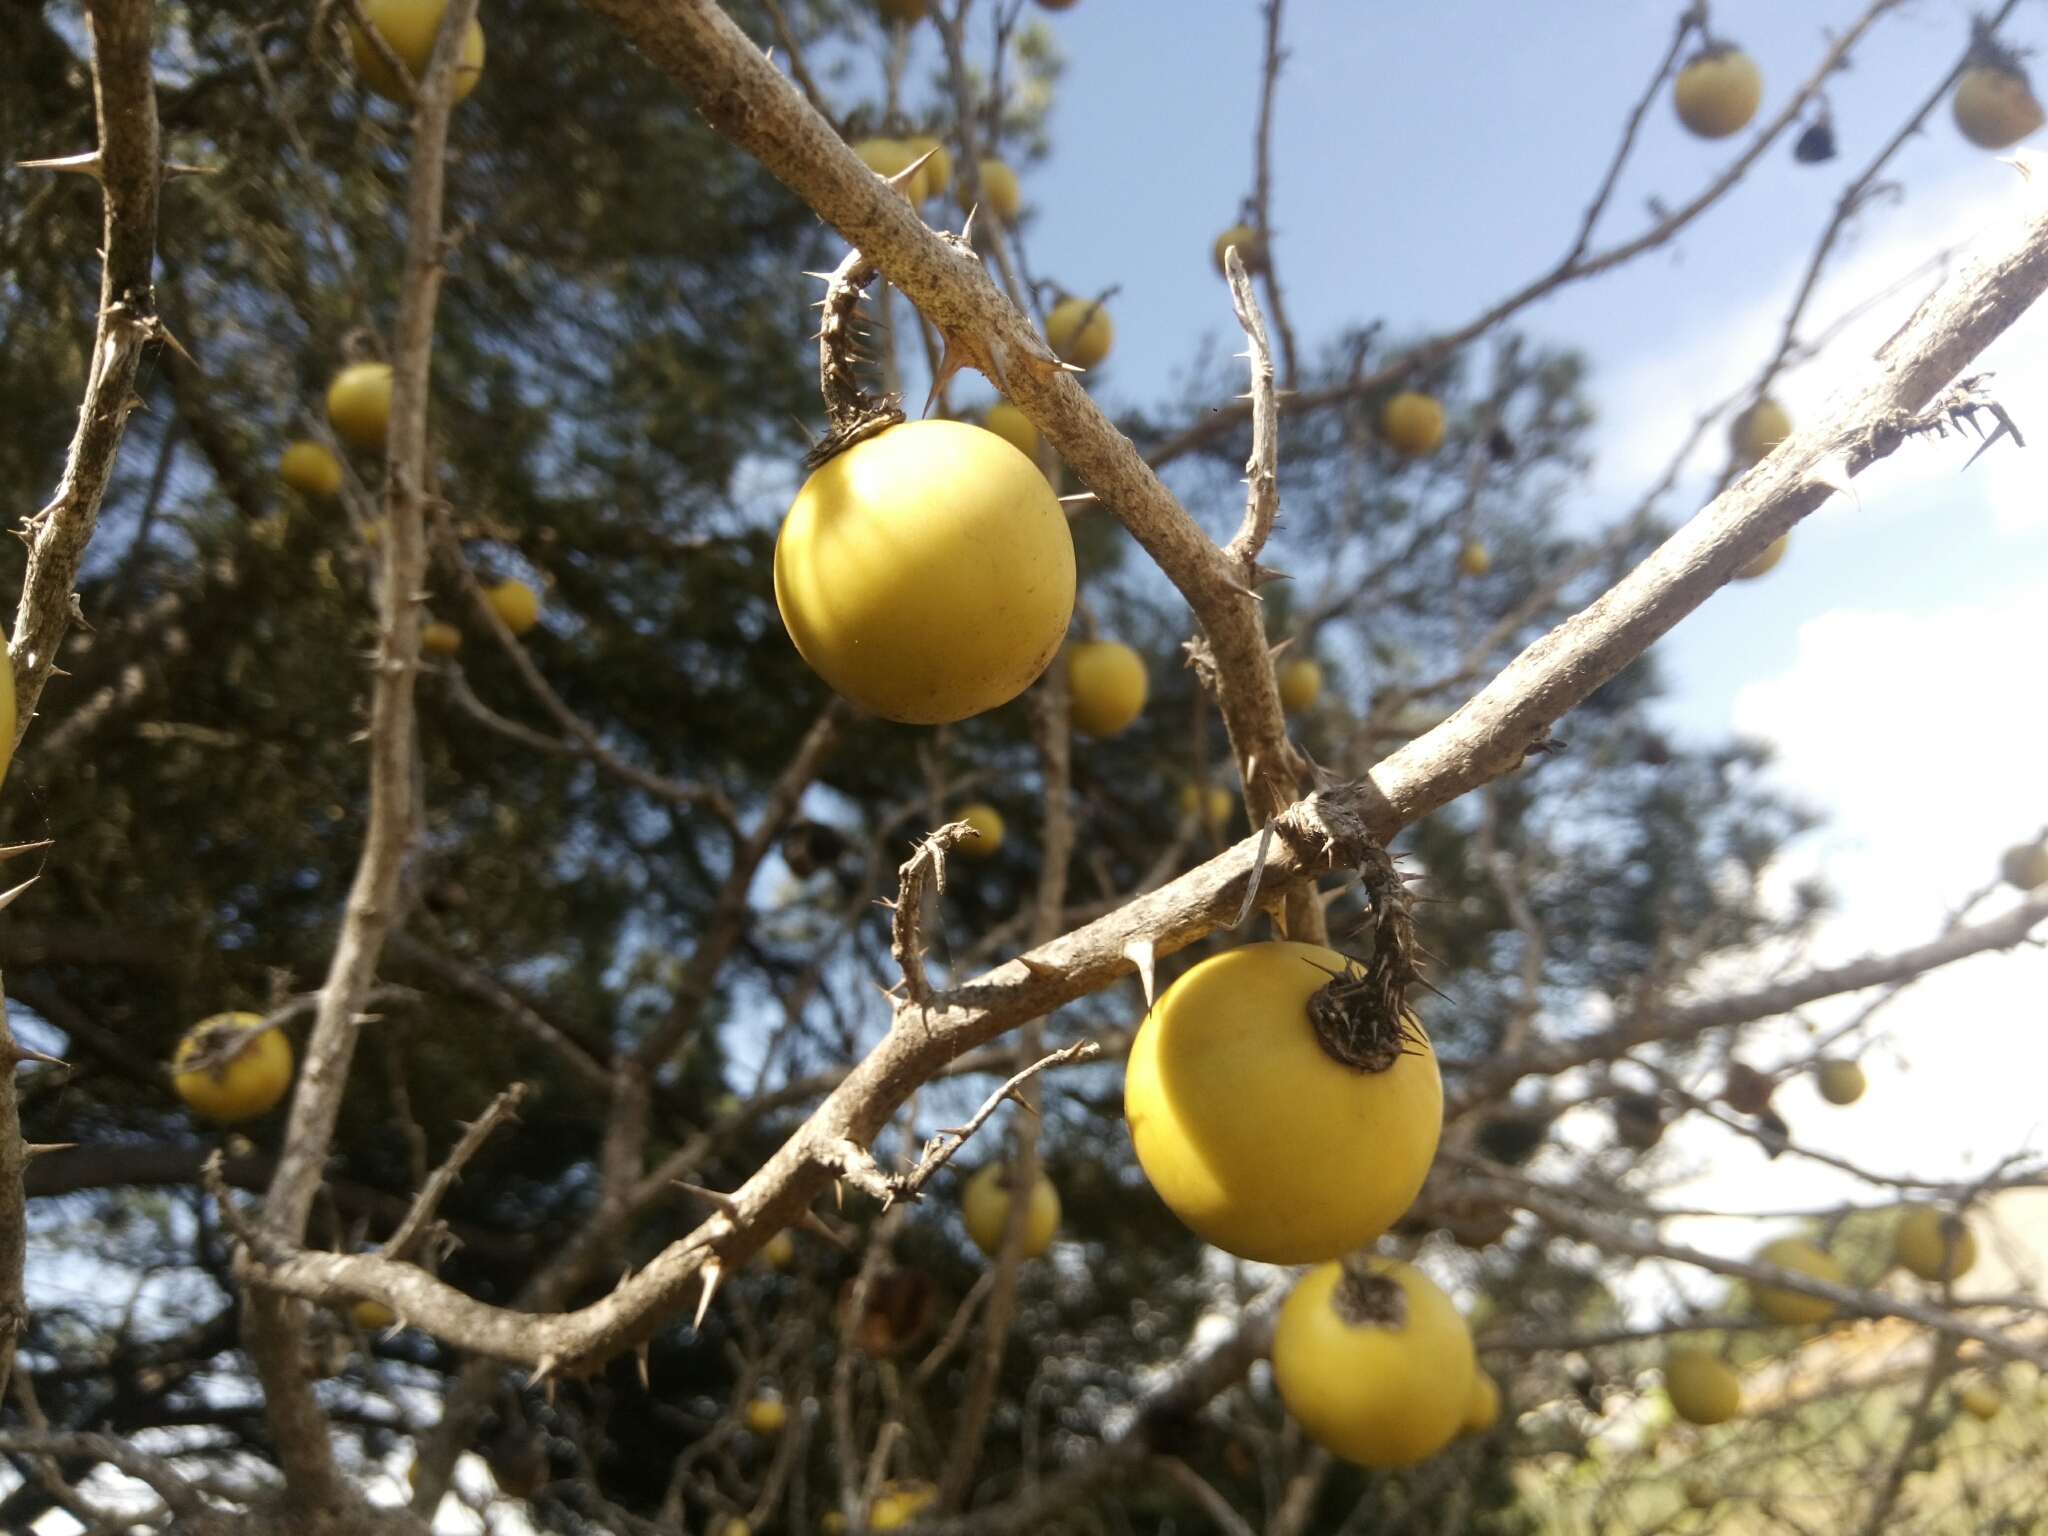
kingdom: Plantae
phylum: Tracheophyta
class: Magnoliopsida
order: Solanales
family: Solanaceae
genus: Solanum
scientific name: Solanum linnaeanum
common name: Nightshade
